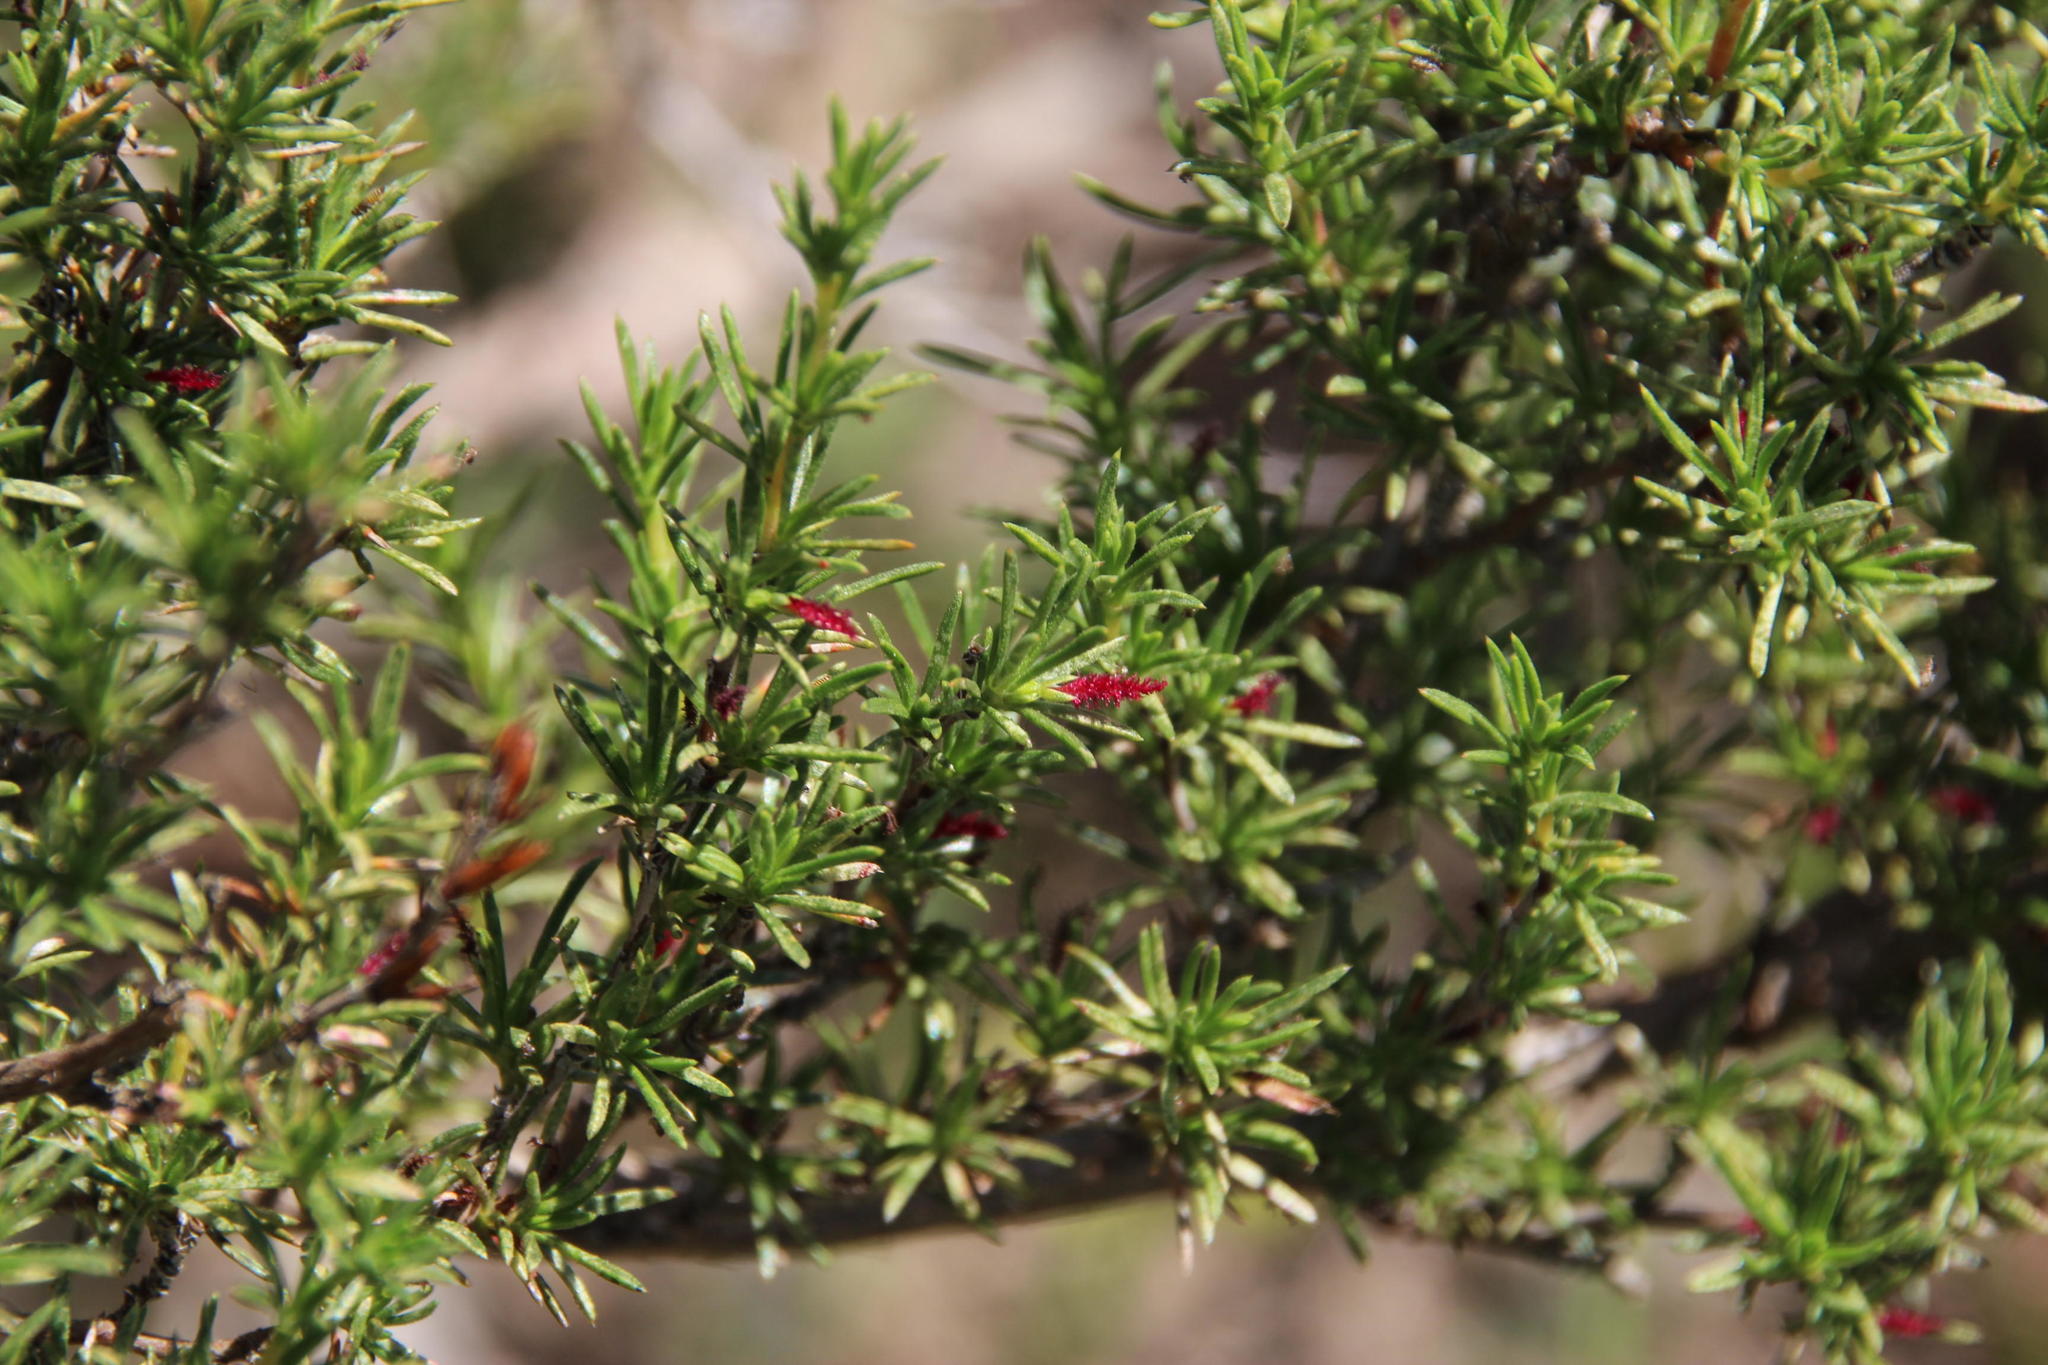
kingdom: Plantae
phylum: Tracheophyta
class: Magnoliopsida
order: Rosales
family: Rosaceae
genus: Cliffortia
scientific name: Cliffortia juniperina
